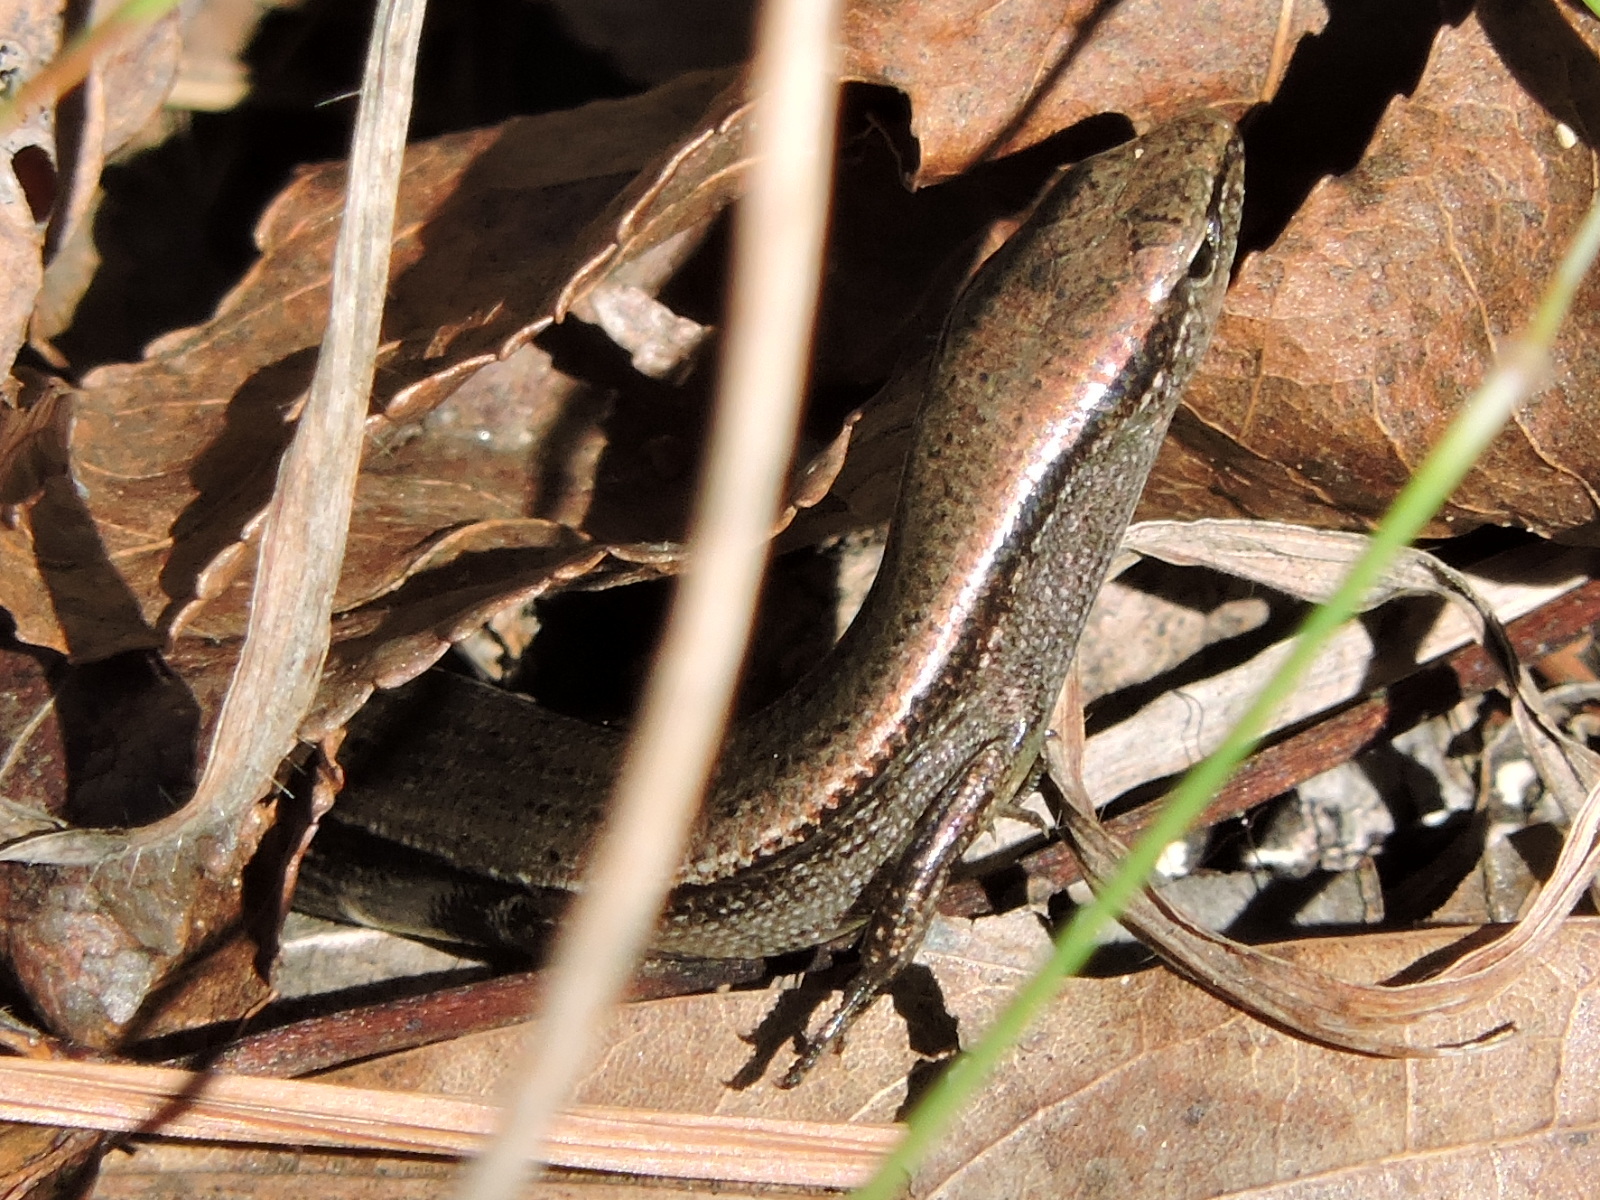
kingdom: Animalia
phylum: Chordata
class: Squamata
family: Scincidae
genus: Scincella
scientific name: Scincella lateralis
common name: Ground skink
